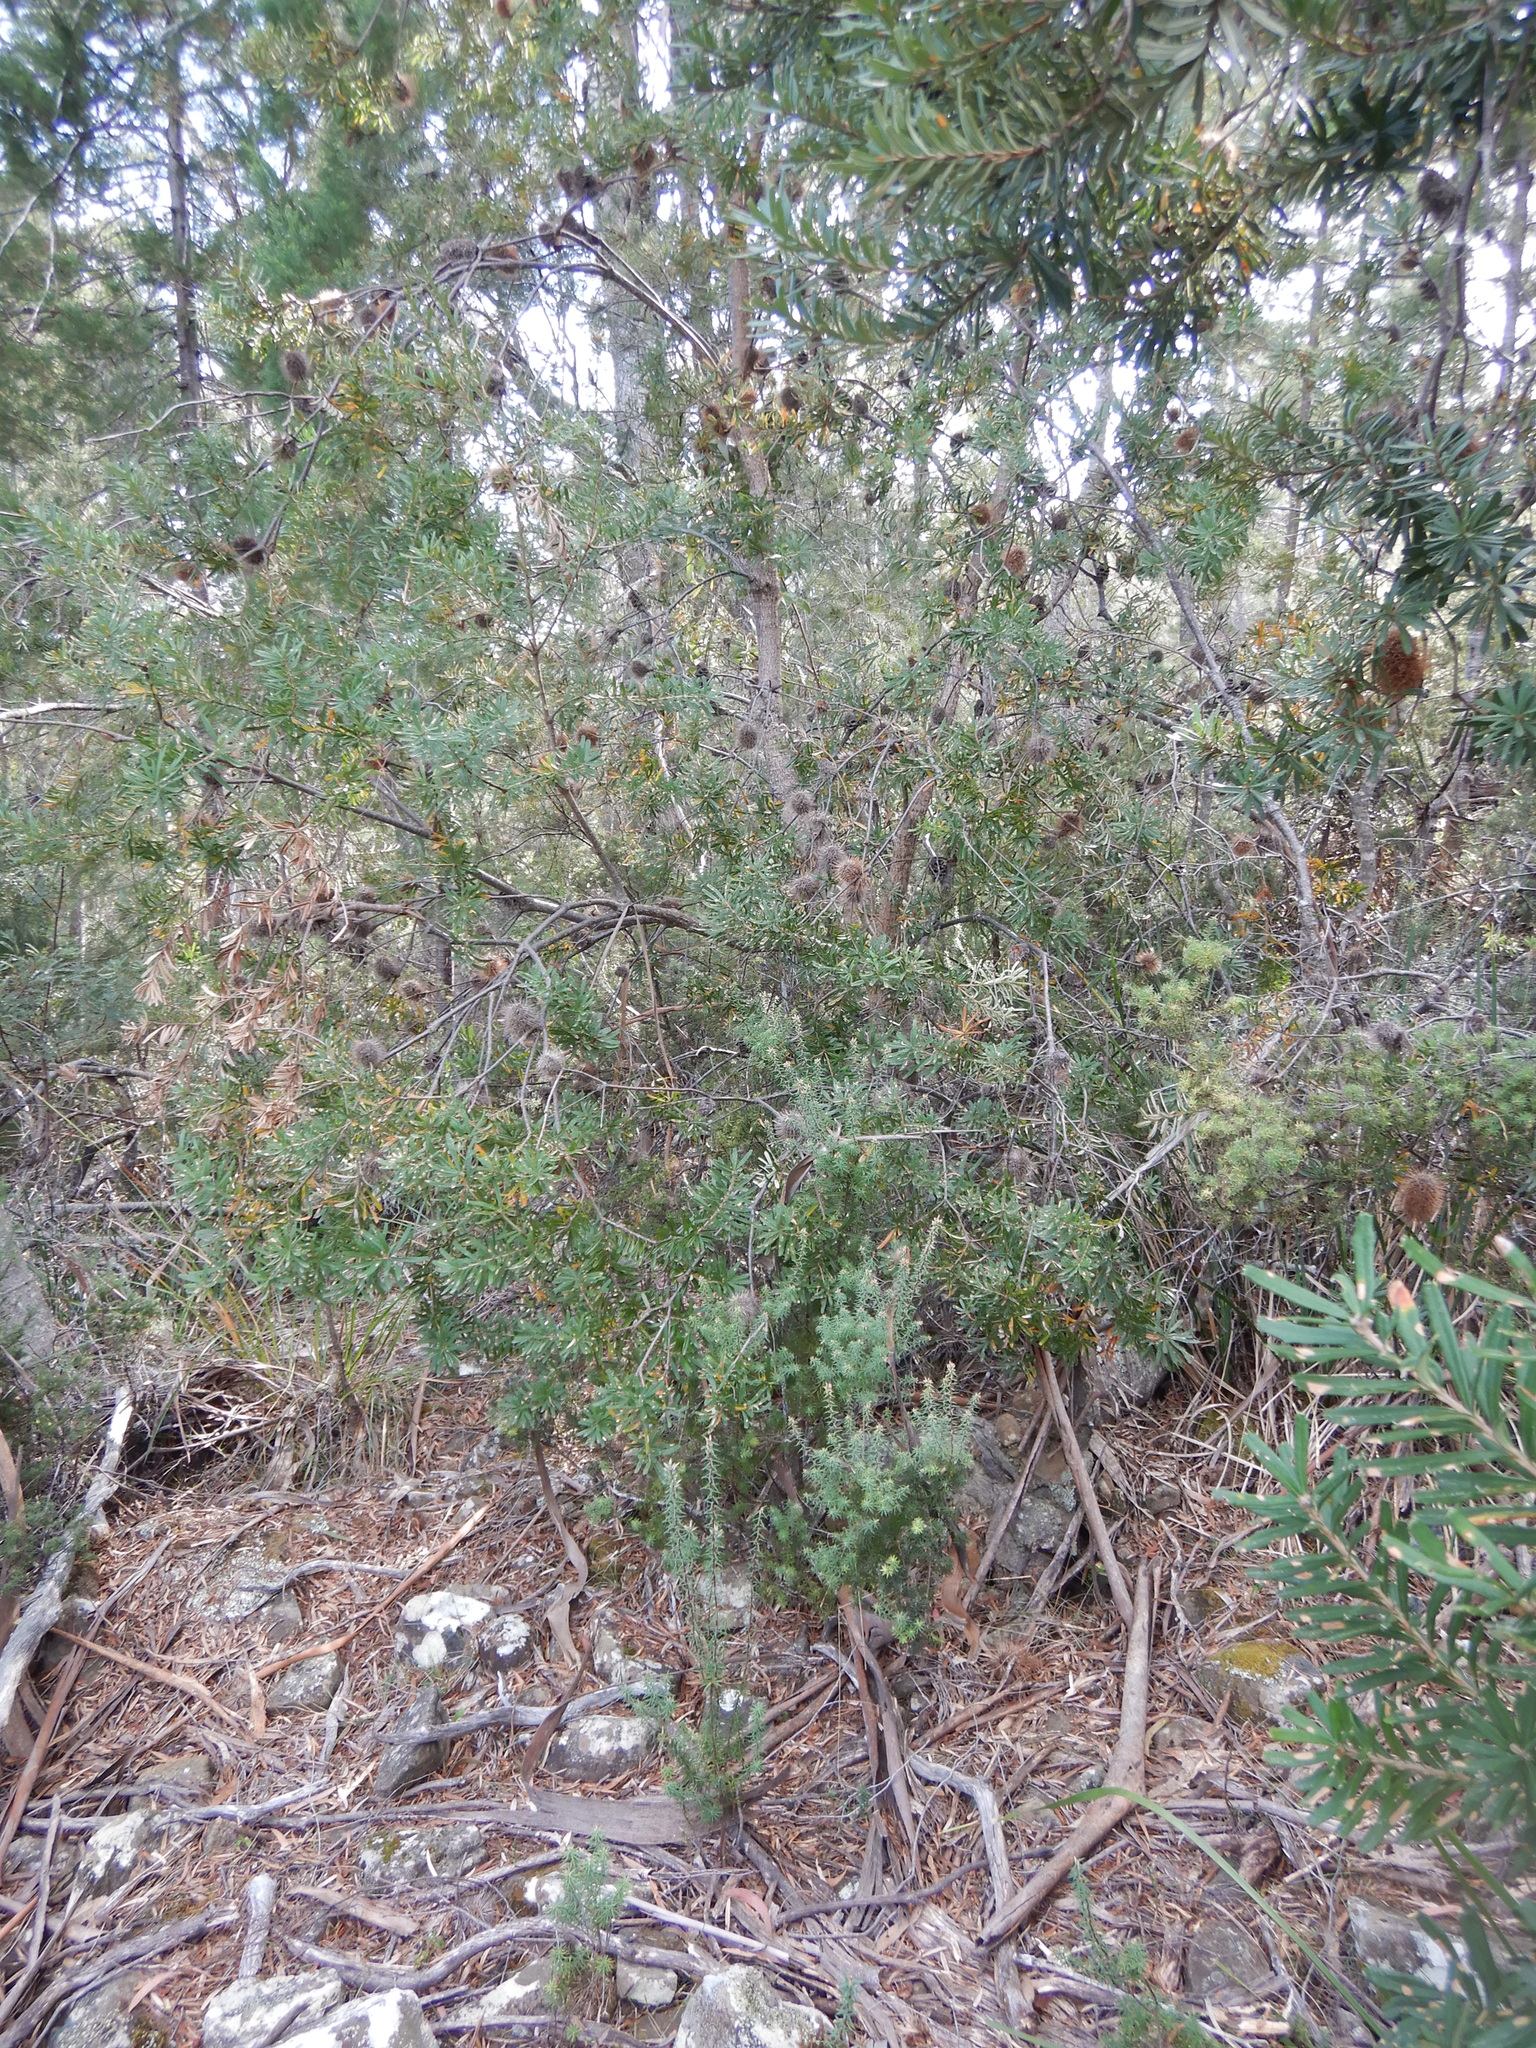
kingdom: Plantae
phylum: Tracheophyta
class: Magnoliopsida
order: Proteales
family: Proteaceae
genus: Banksia
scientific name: Banksia marginata
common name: Silver banksia
